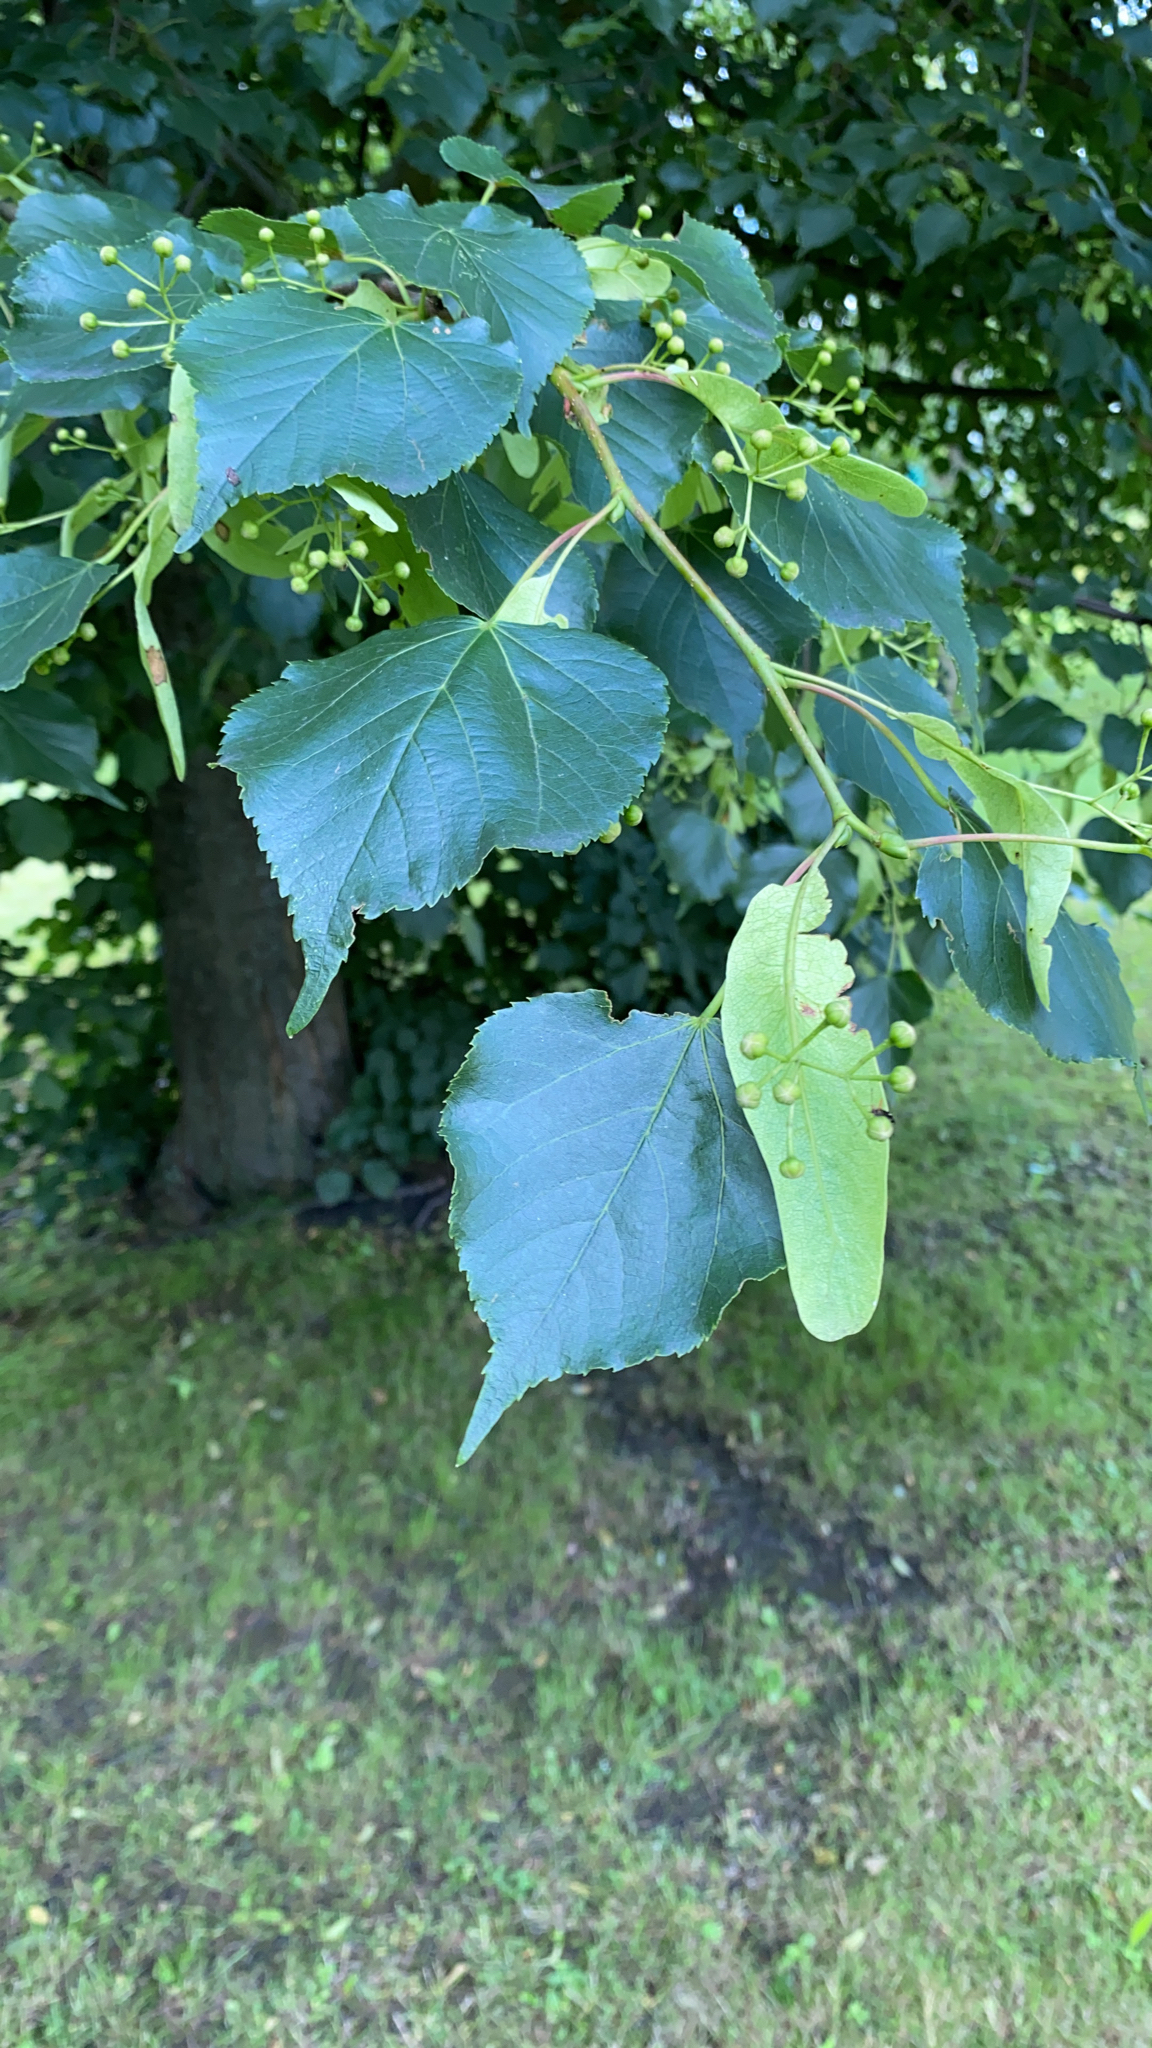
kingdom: Plantae
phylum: Tracheophyta
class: Magnoliopsida
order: Malvales
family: Malvaceae
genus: Tilia
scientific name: Tilia cordata
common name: Small-leaved lime
